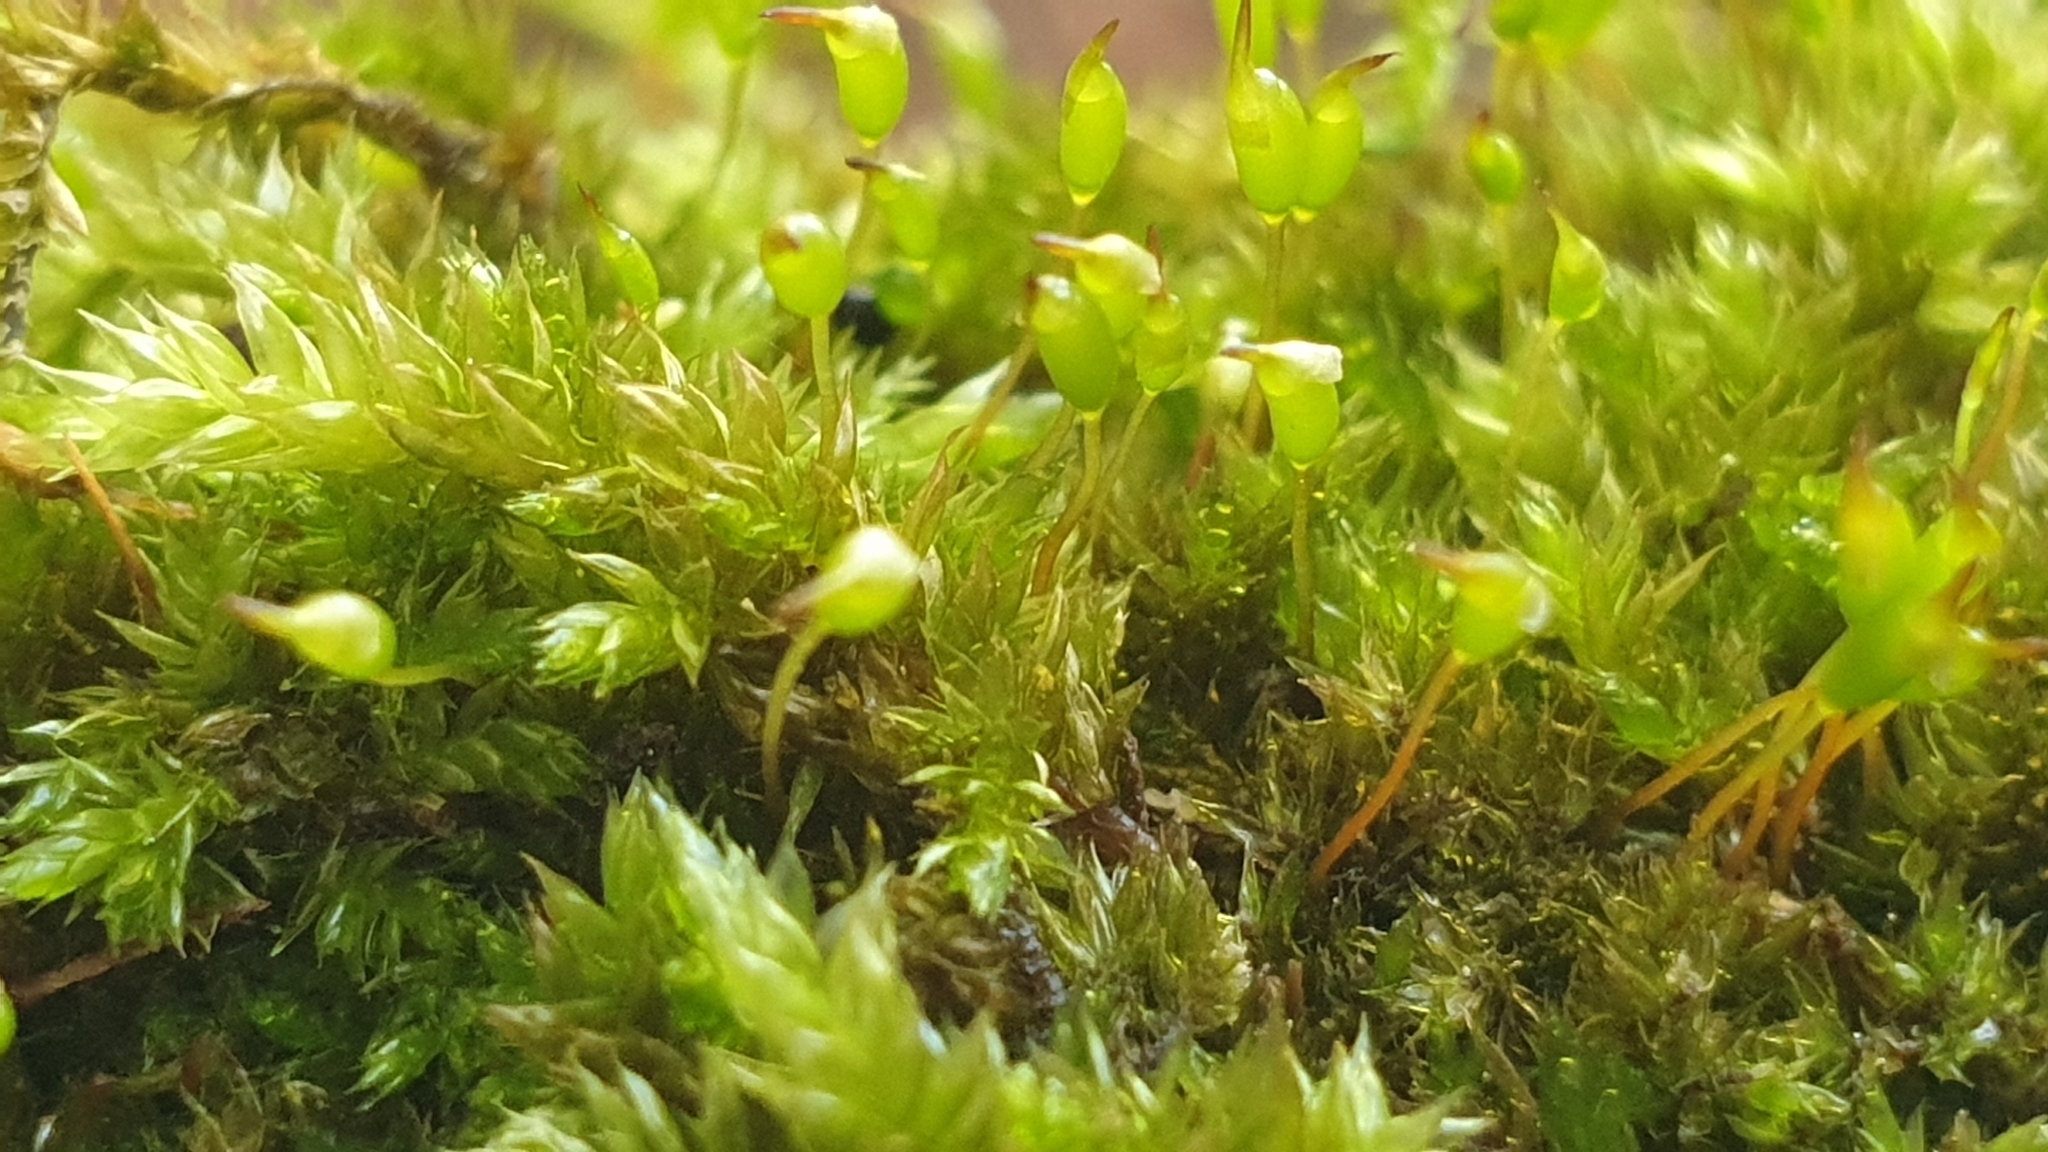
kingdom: Plantae
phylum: Bryophyta
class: Bryopsida
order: Hypnales
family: Sematophyllaceae
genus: Sematophyllum
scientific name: Sematophyllum homomallum
